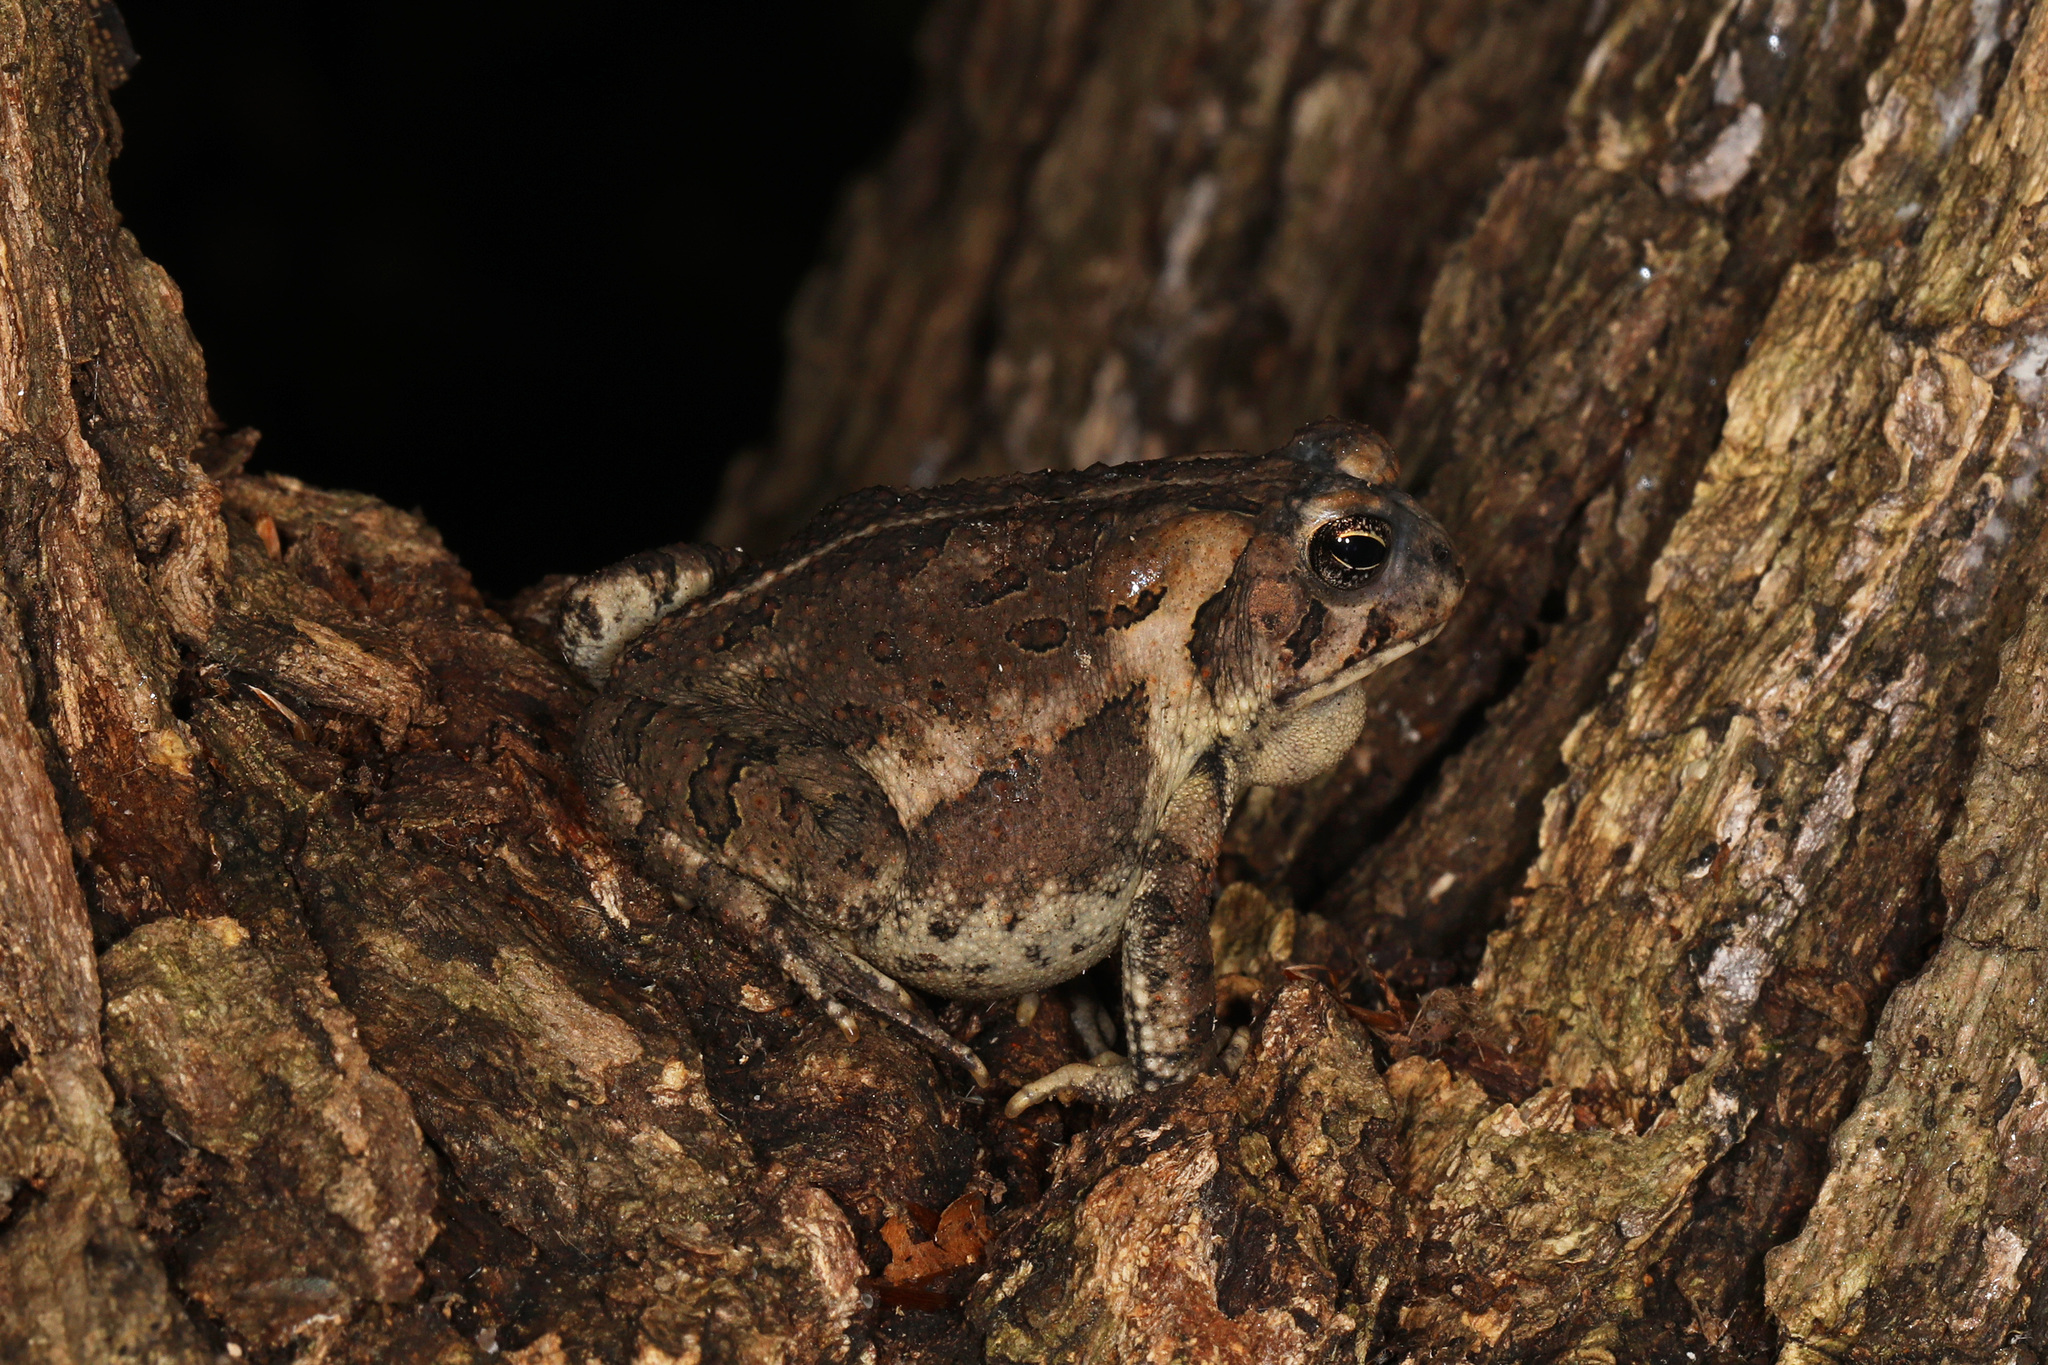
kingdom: Animalia
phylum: Chordata
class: Amphibia
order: Anura
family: Bufonidae
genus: Anaxyrus
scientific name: Anaxyrus fowleri
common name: Fowler's toad
